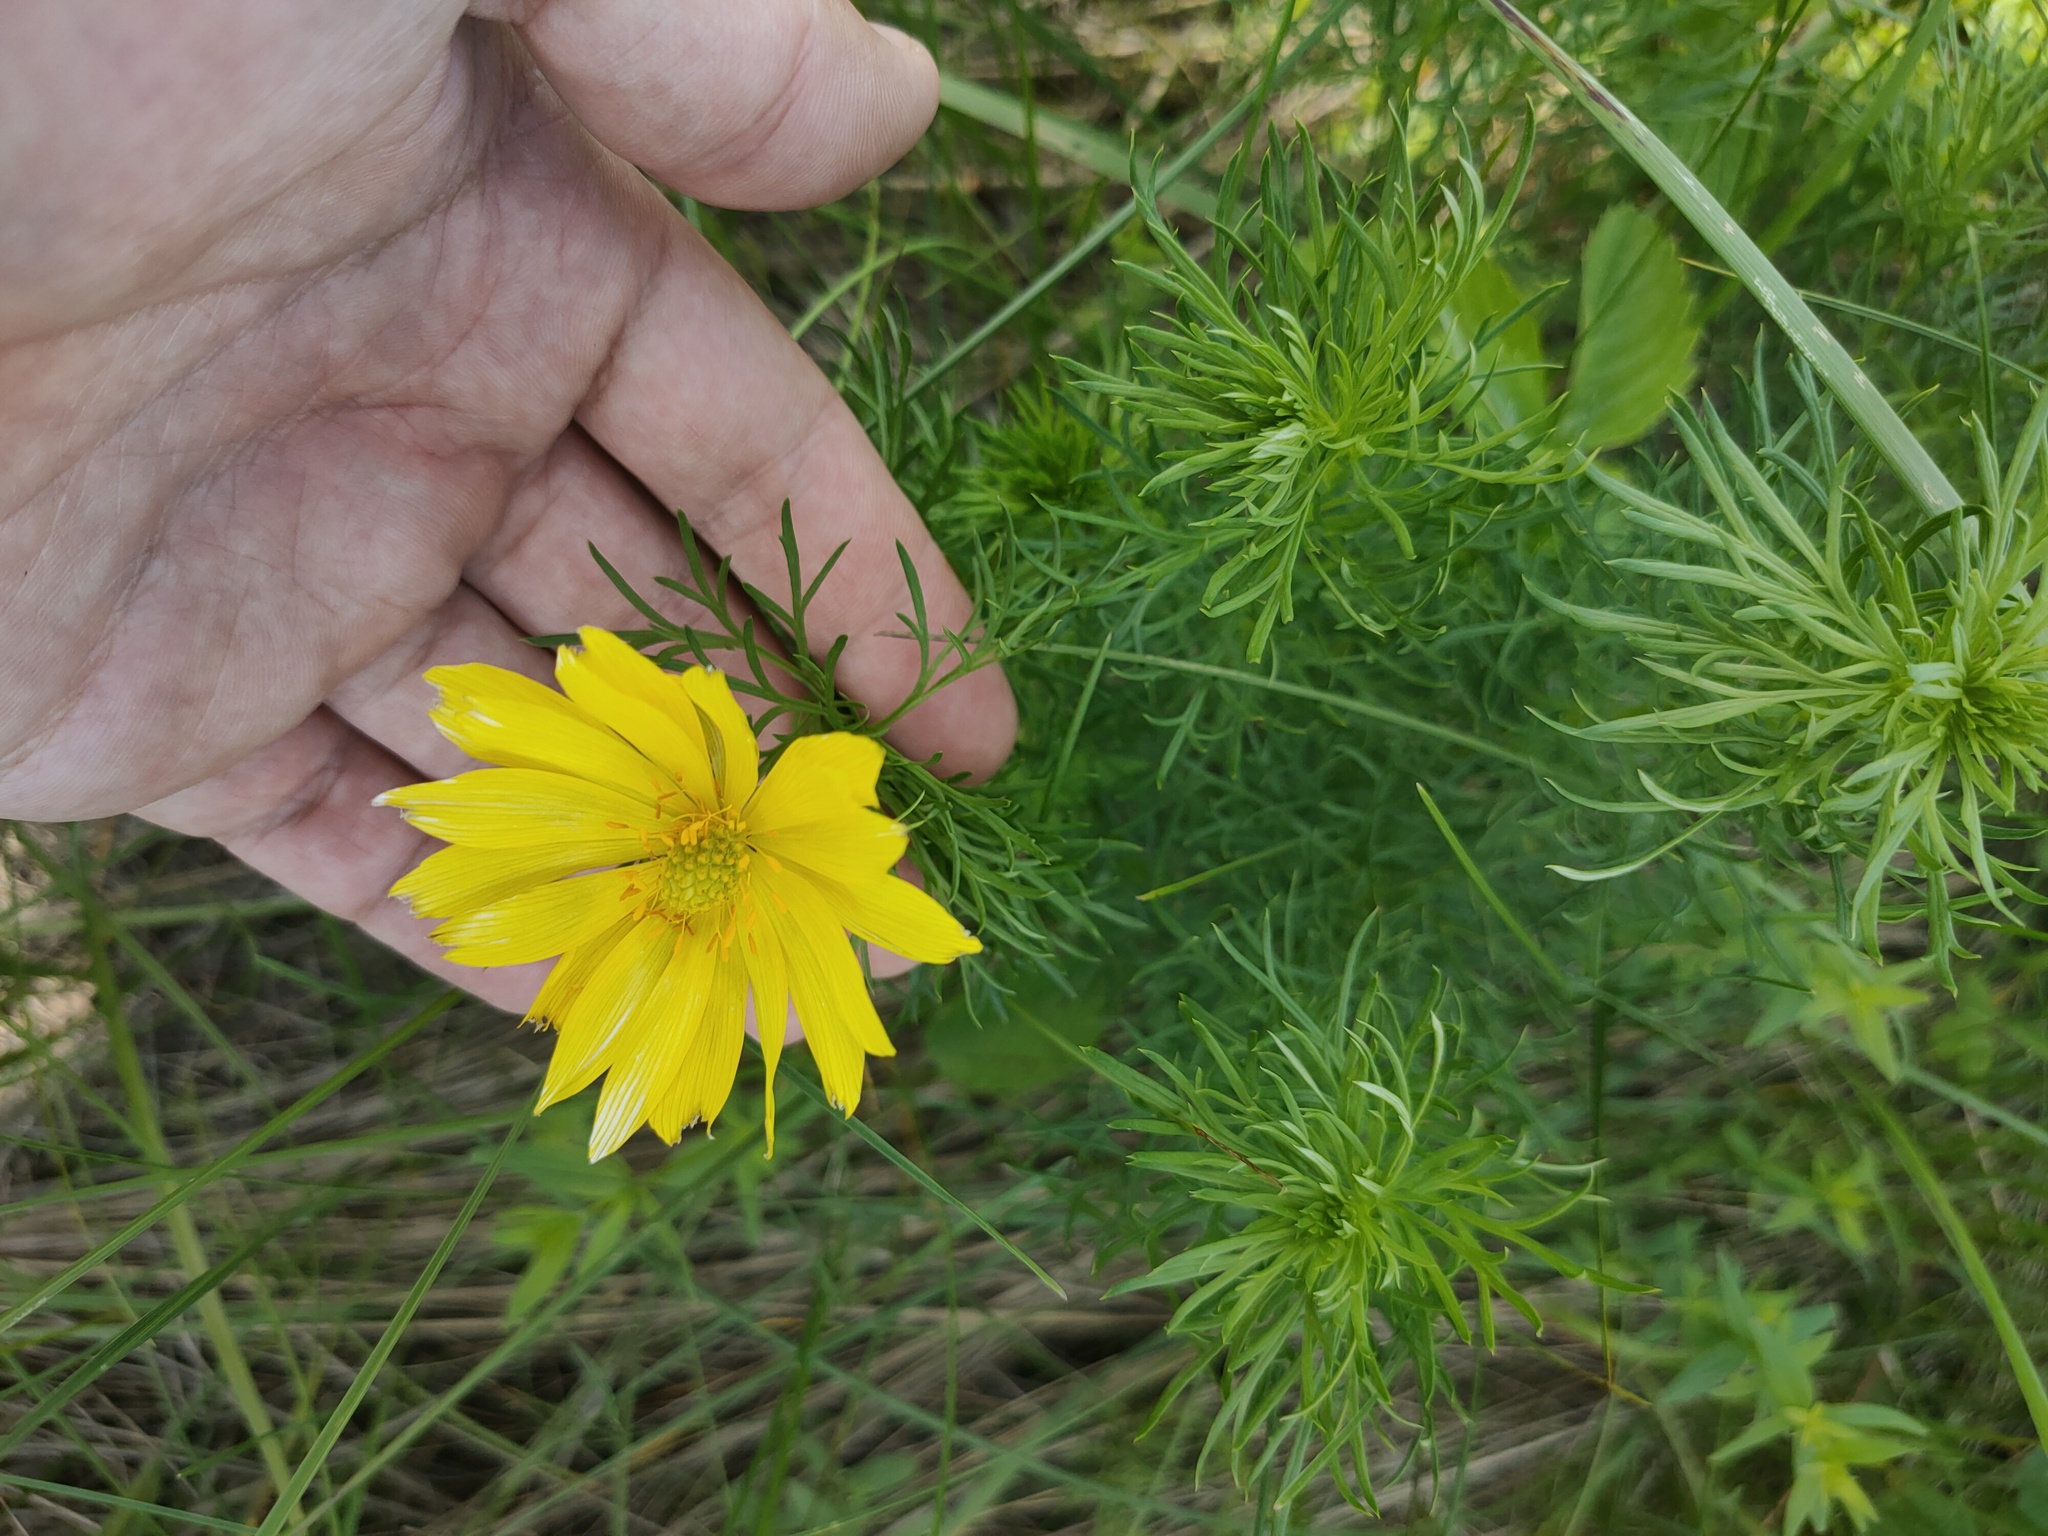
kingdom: Plantae
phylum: Tracheophyta
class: Magnoliopsida
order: Ranunculales
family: Ranunculaceae
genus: Adonis
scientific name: Adonis vernalis
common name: Yellow pheasants-eye
